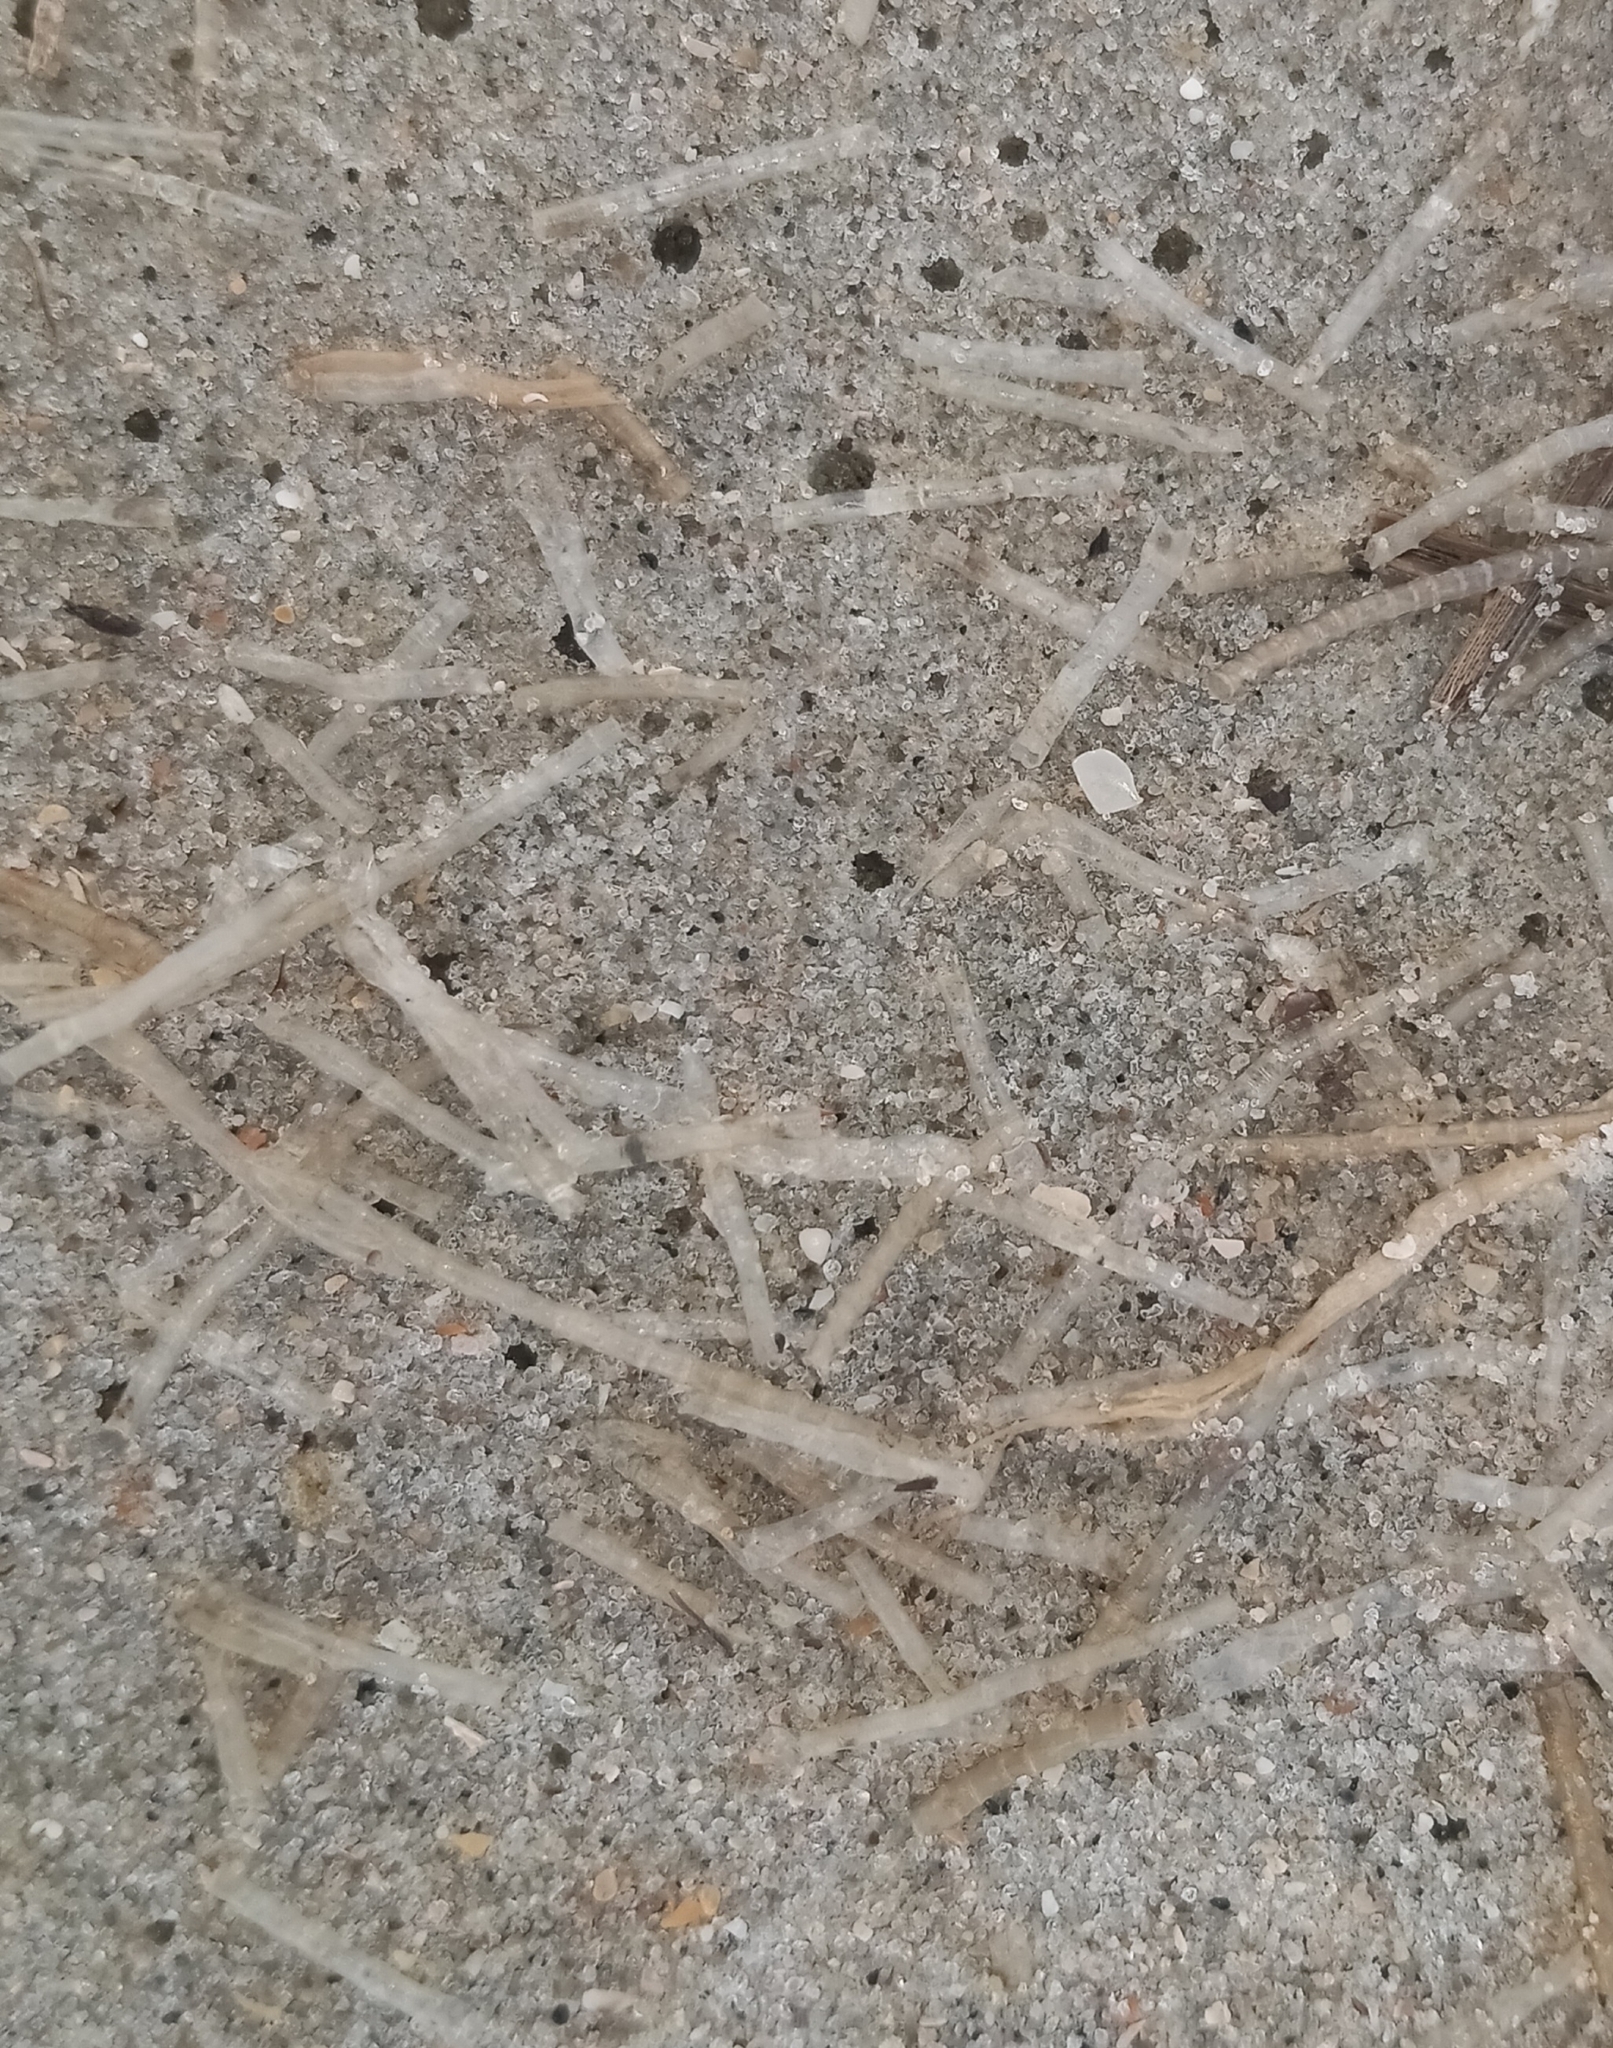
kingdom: Animalia
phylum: Annelida
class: Polychaeta
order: Eunicida
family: Onuphidae
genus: Kinbergonuphis
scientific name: Kinbergonuphis jenneri
